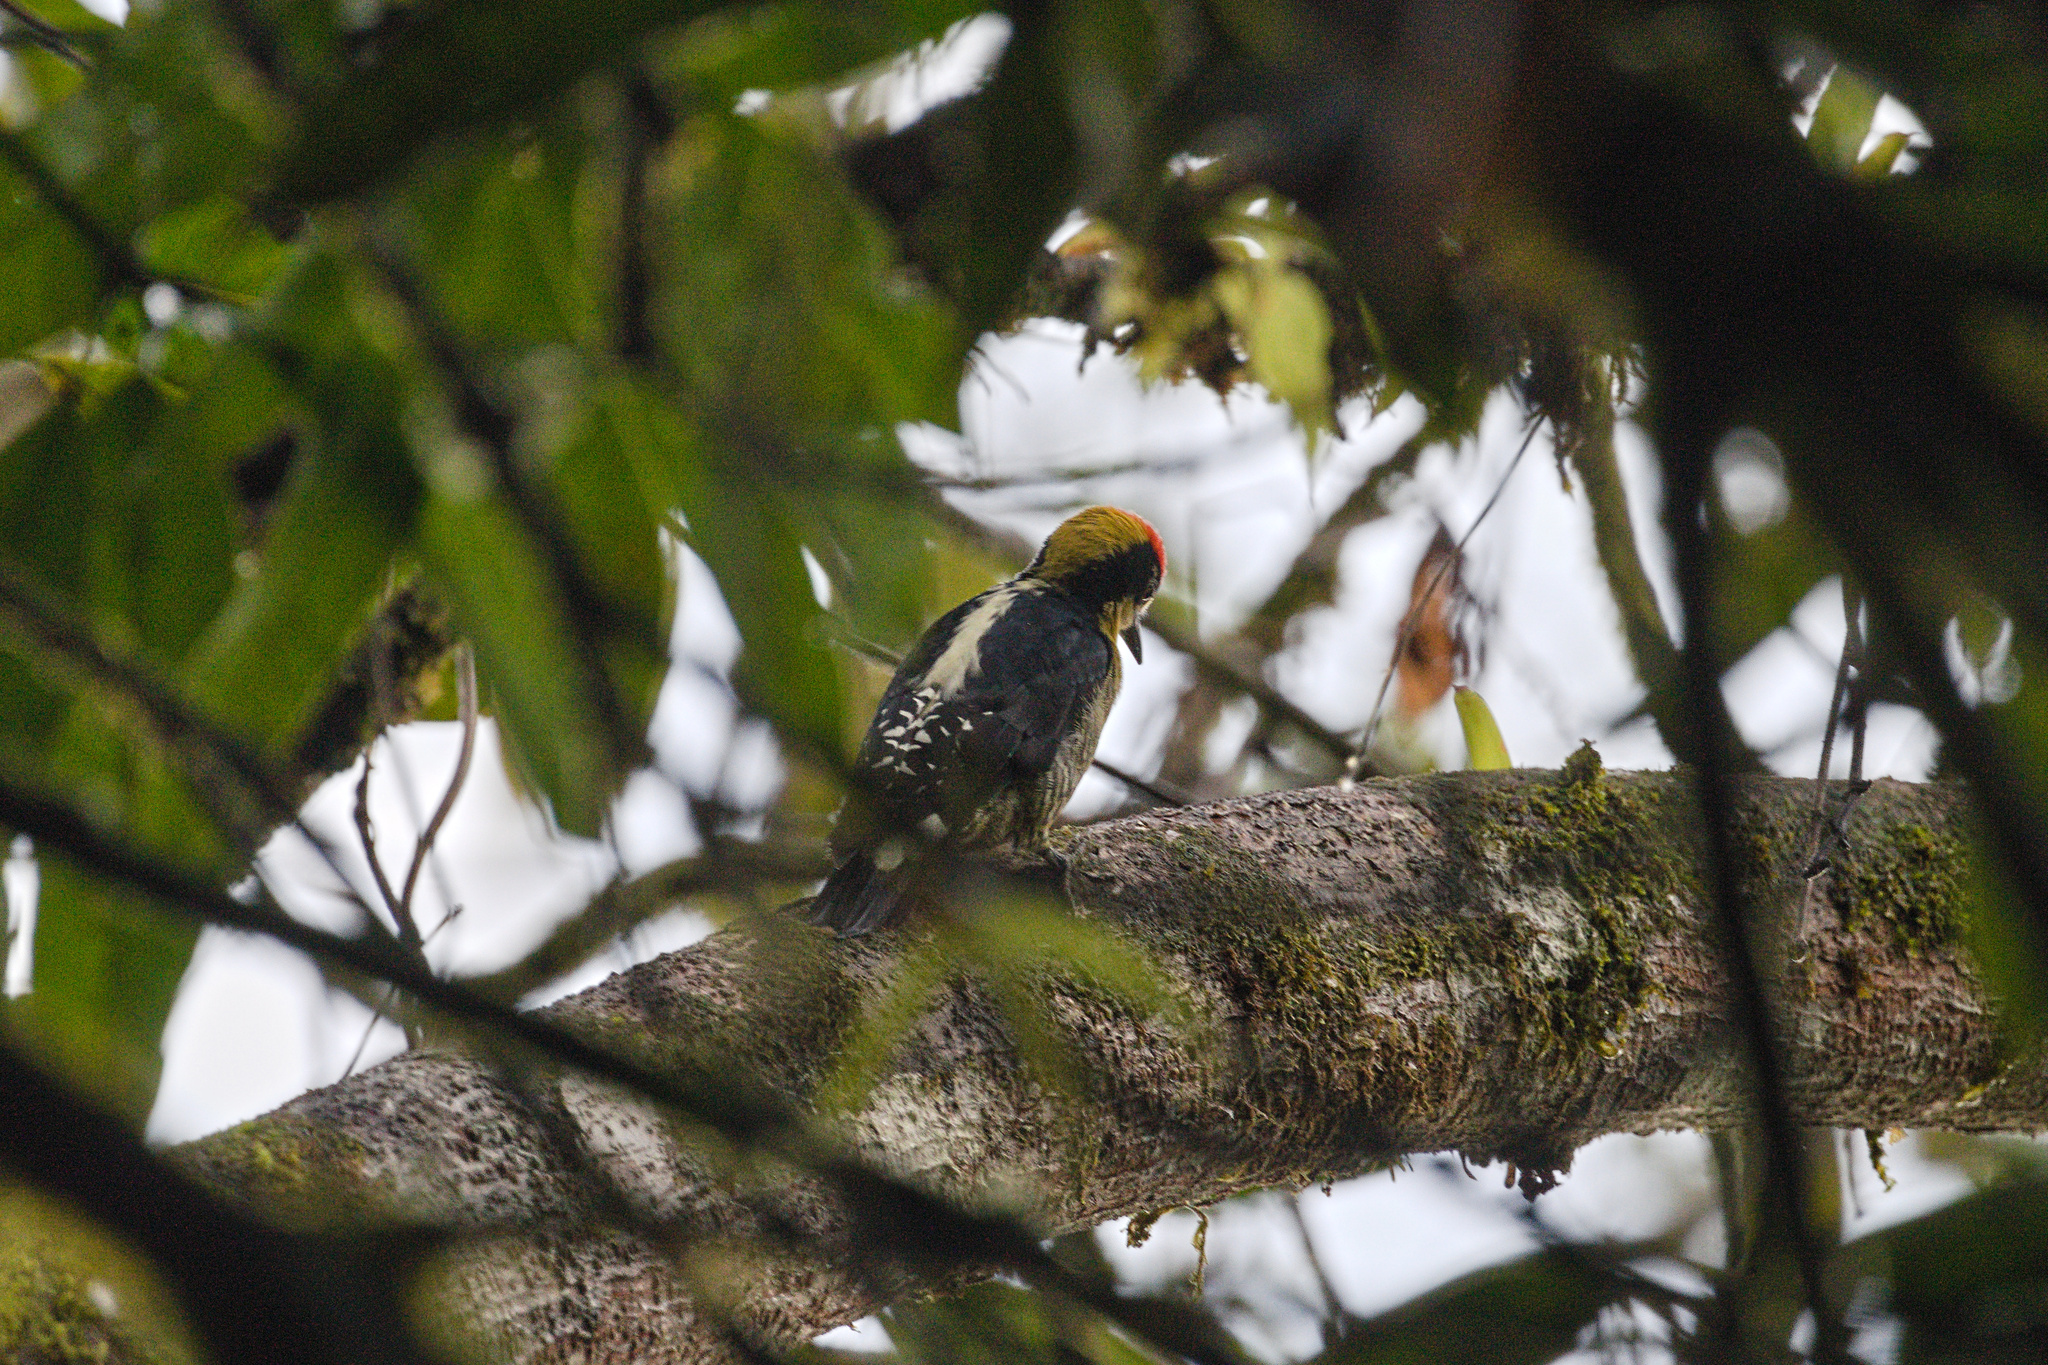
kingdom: Animalia
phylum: Chordata
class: Aves
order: Piciformes
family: Picidae
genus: Melanerpes
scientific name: Melanerpes chrysauchen
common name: Golden-naped woodpecker
